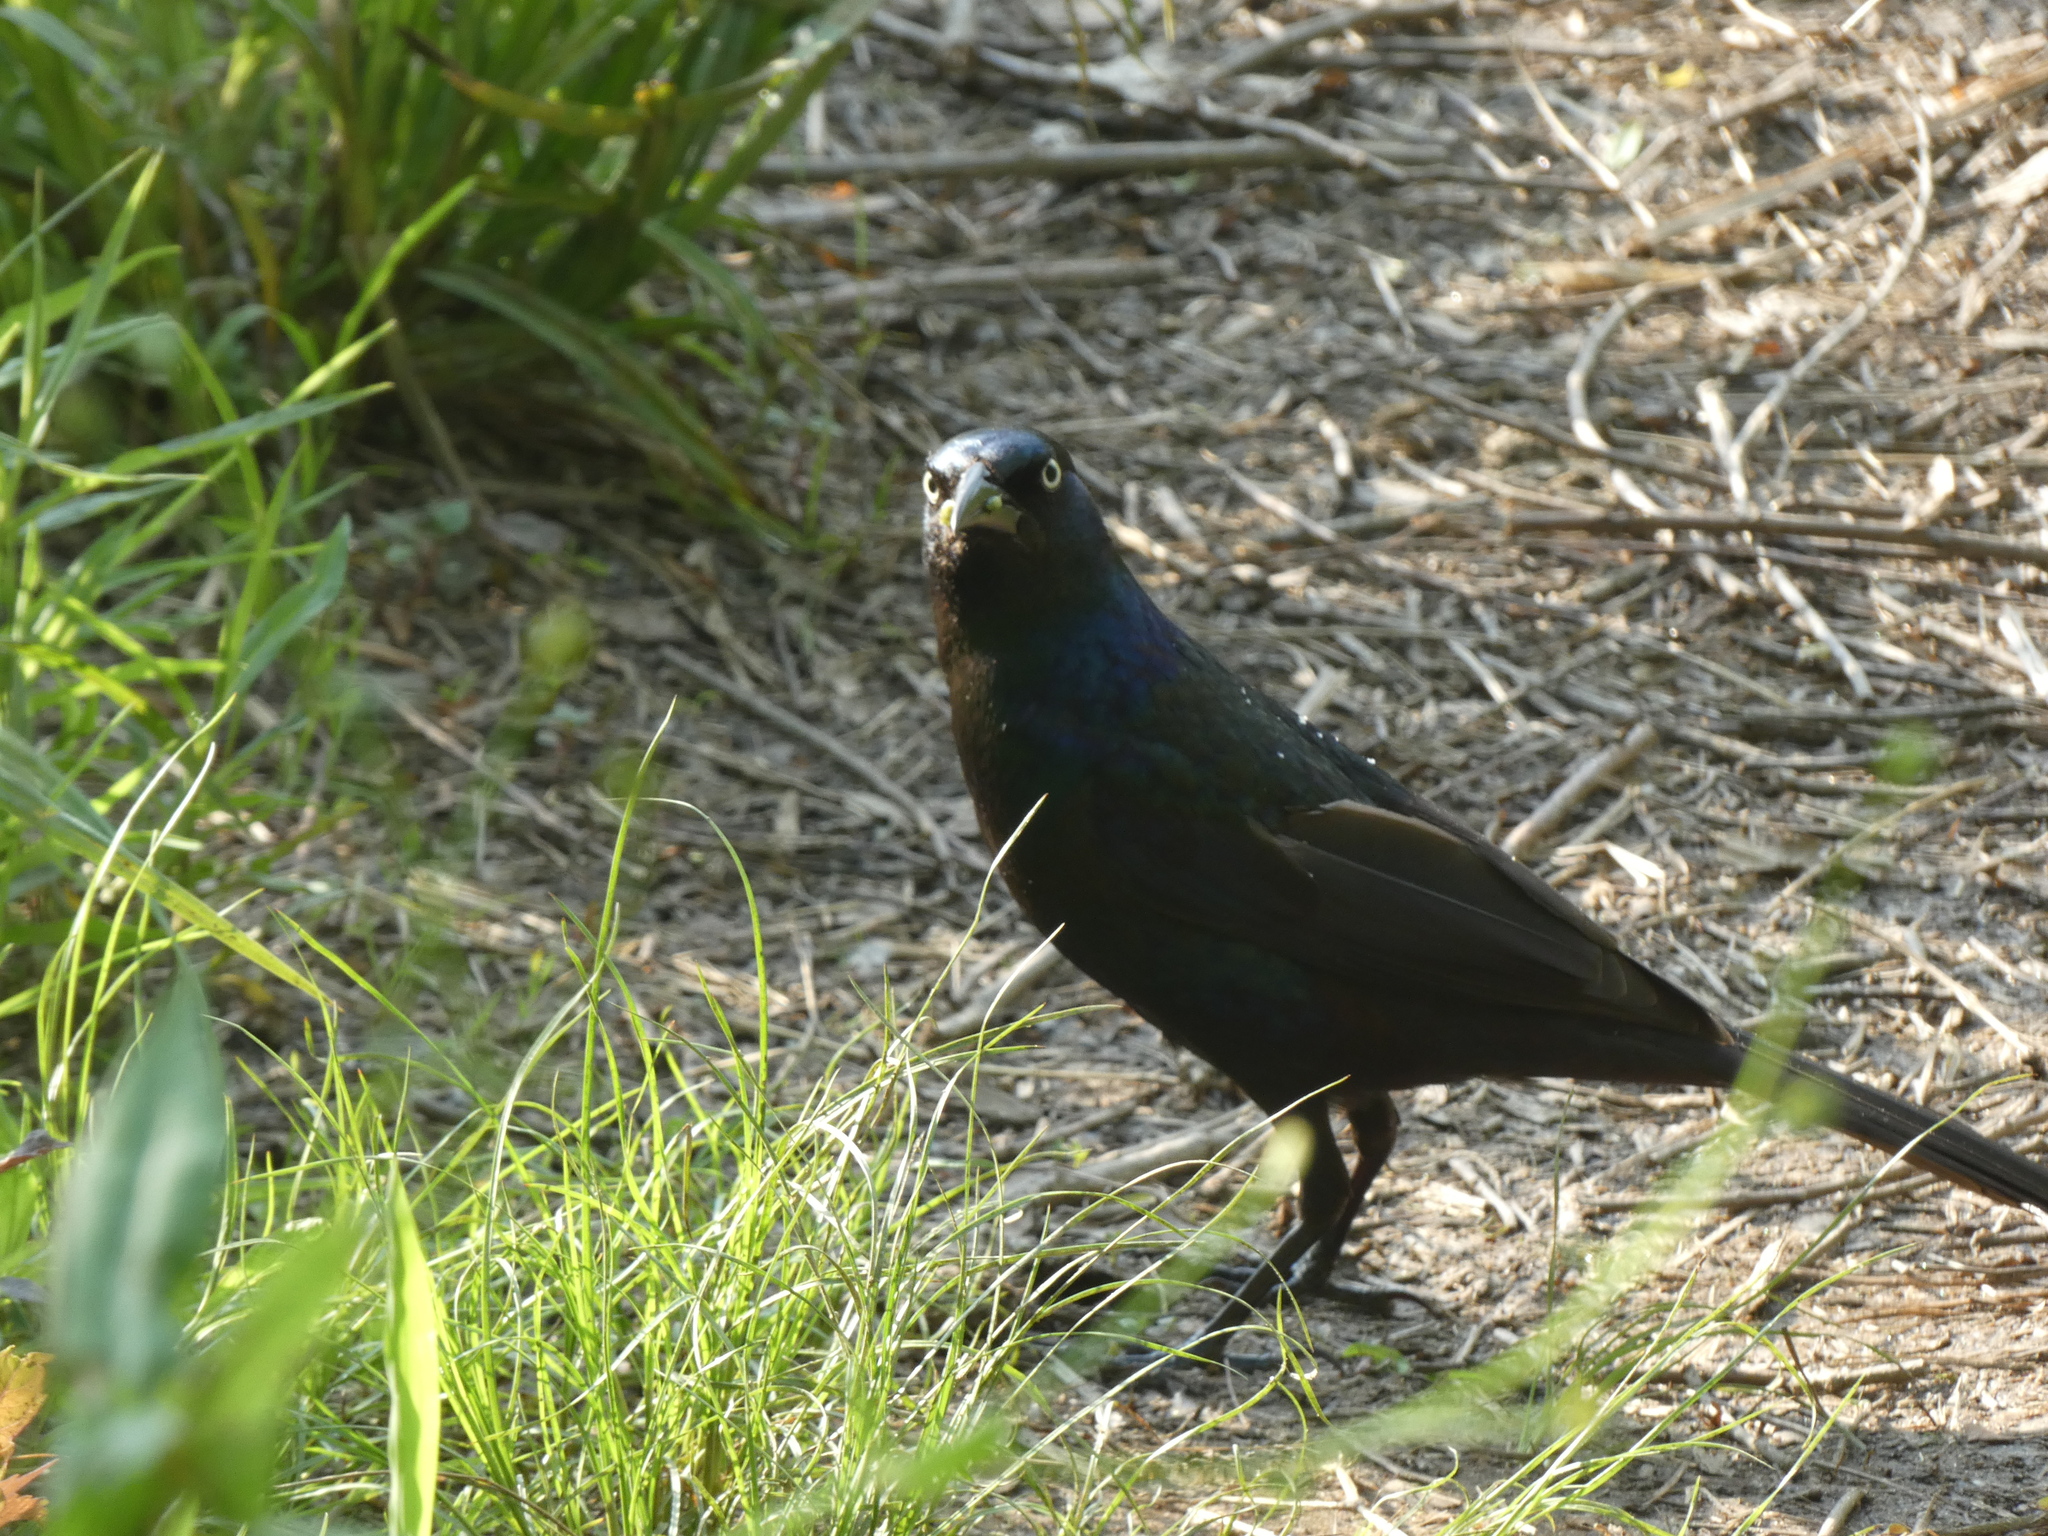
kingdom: Animalia
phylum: Chordata
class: Aves
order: Passeriformes
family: Icteridae
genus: Quiscalus
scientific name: Quiscalus quiscula
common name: Common grackle
